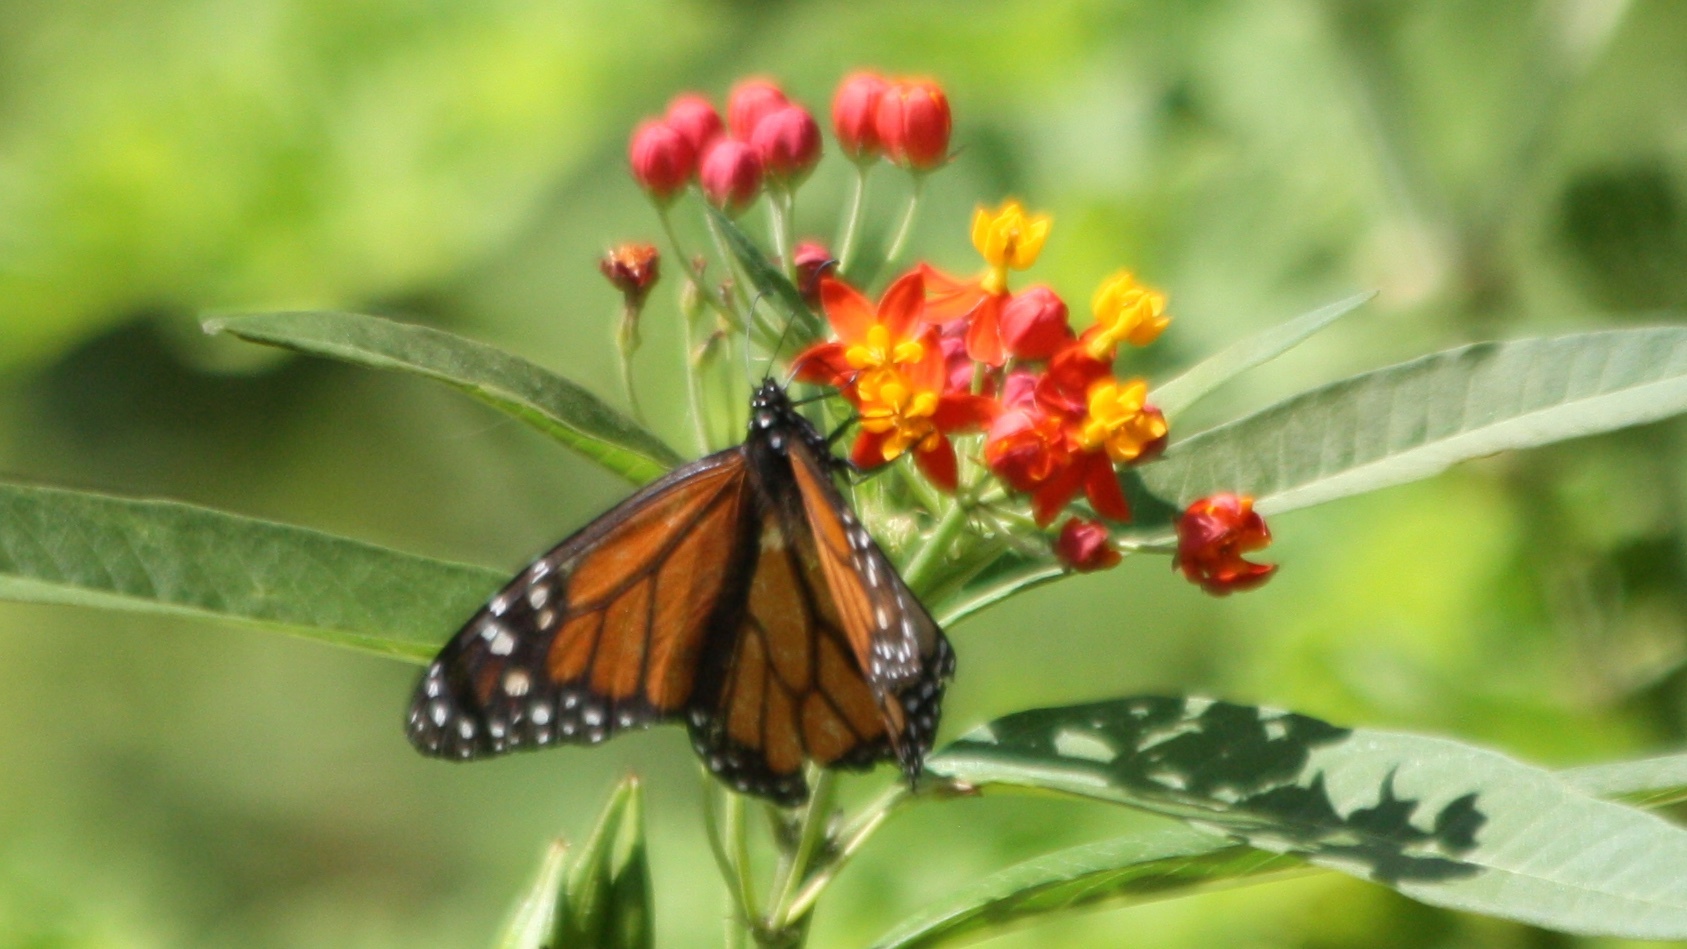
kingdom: Animalia
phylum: Arthropoda
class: Insecta
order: Lepidoptera
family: Nymphalidae
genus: Danaus
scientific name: Danaus plexippus
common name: Monarch
